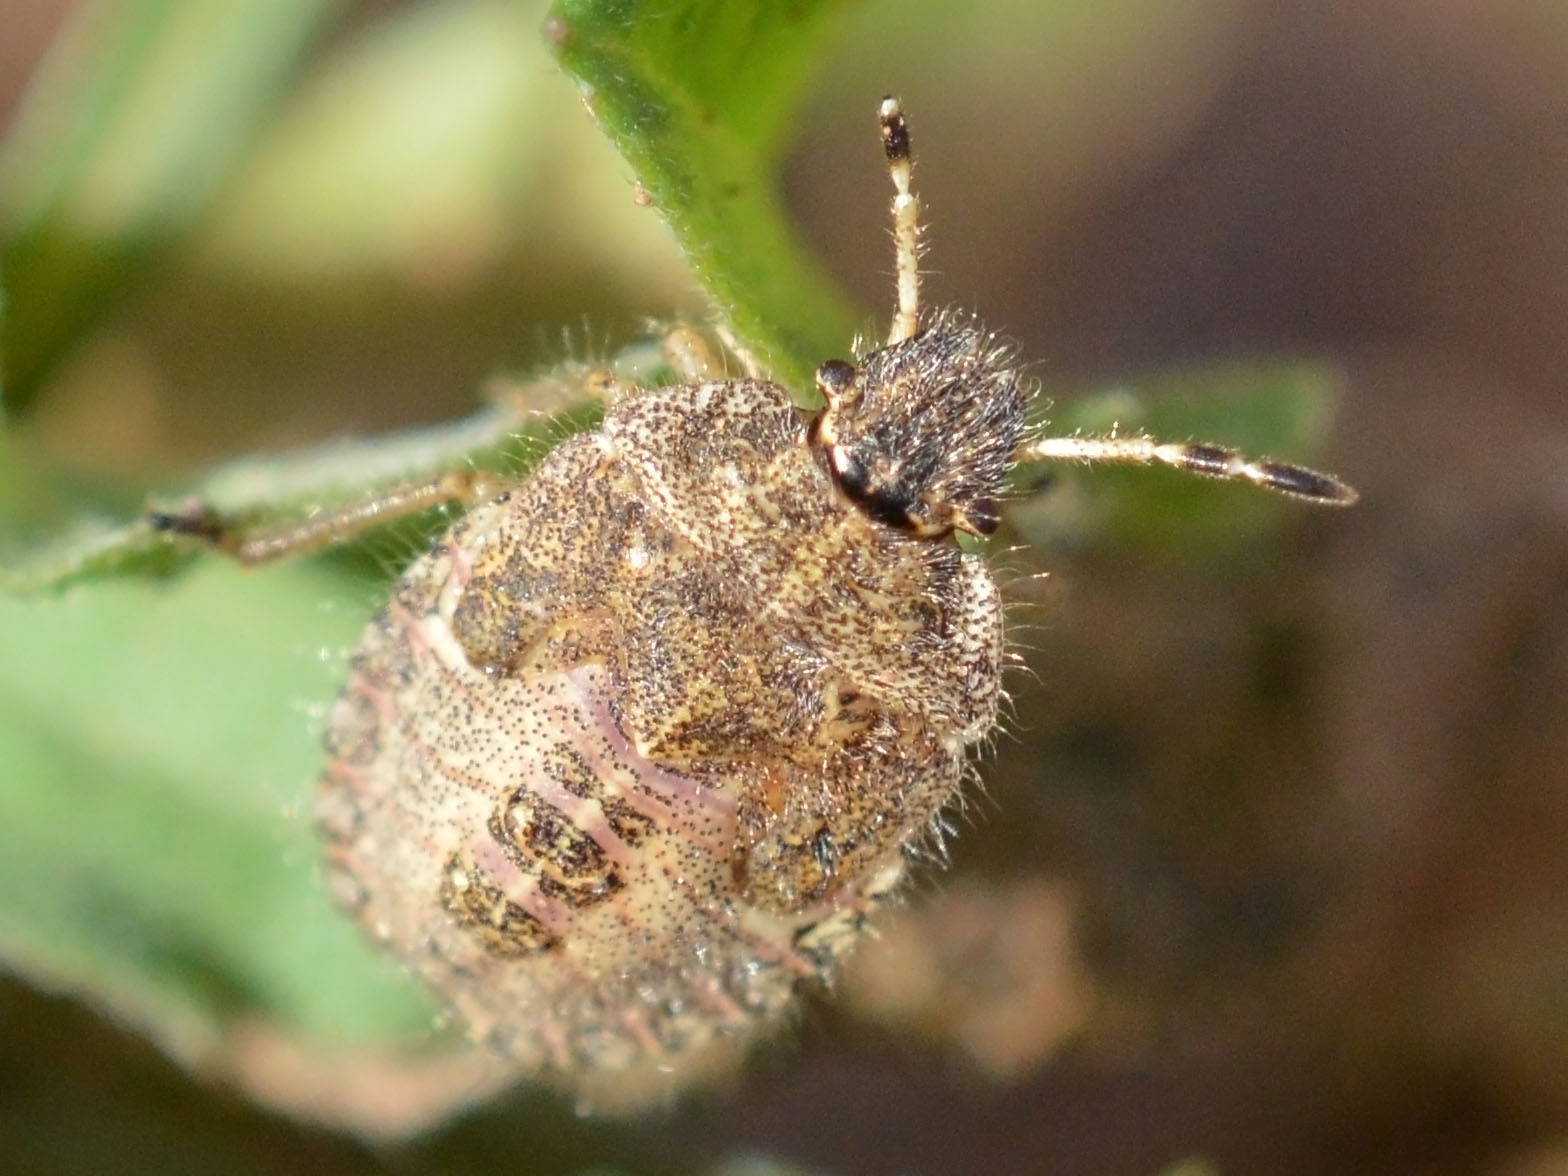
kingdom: Animalia
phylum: Arthropoda
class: Insecta
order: Hemiptera
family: Pentatomidae
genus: Dolycoris
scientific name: Dolycoris baccarum
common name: Sloe bug
